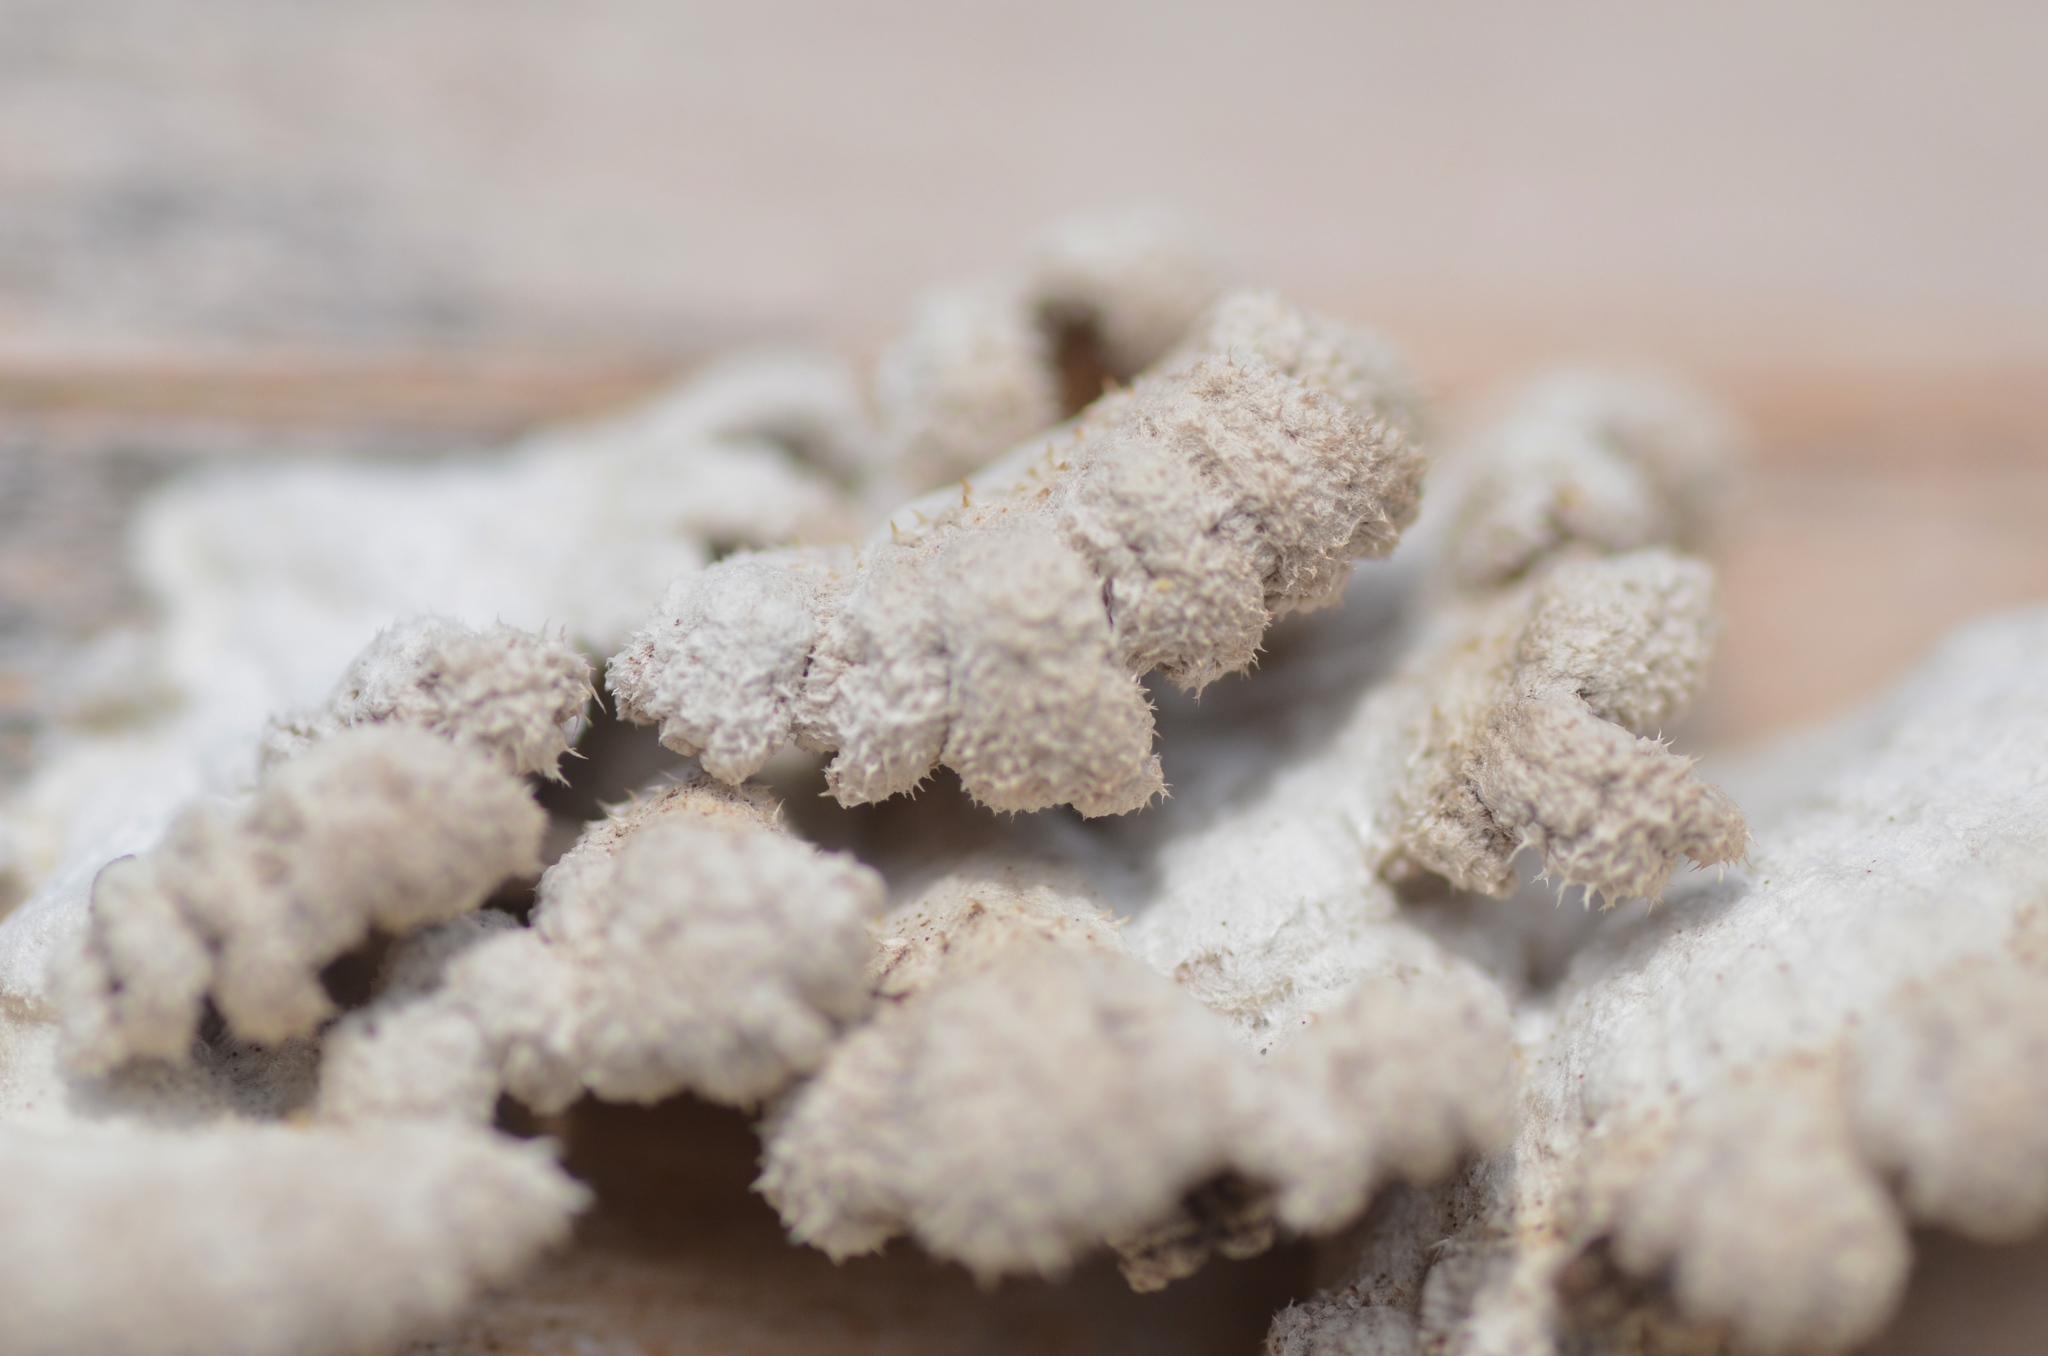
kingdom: Fungi
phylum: Basidiomycota
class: Agaricomycetes
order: Agaricales
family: Schizophyllaceae
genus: Schizophyllum
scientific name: Schizophyllum commune
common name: Common porecrust
